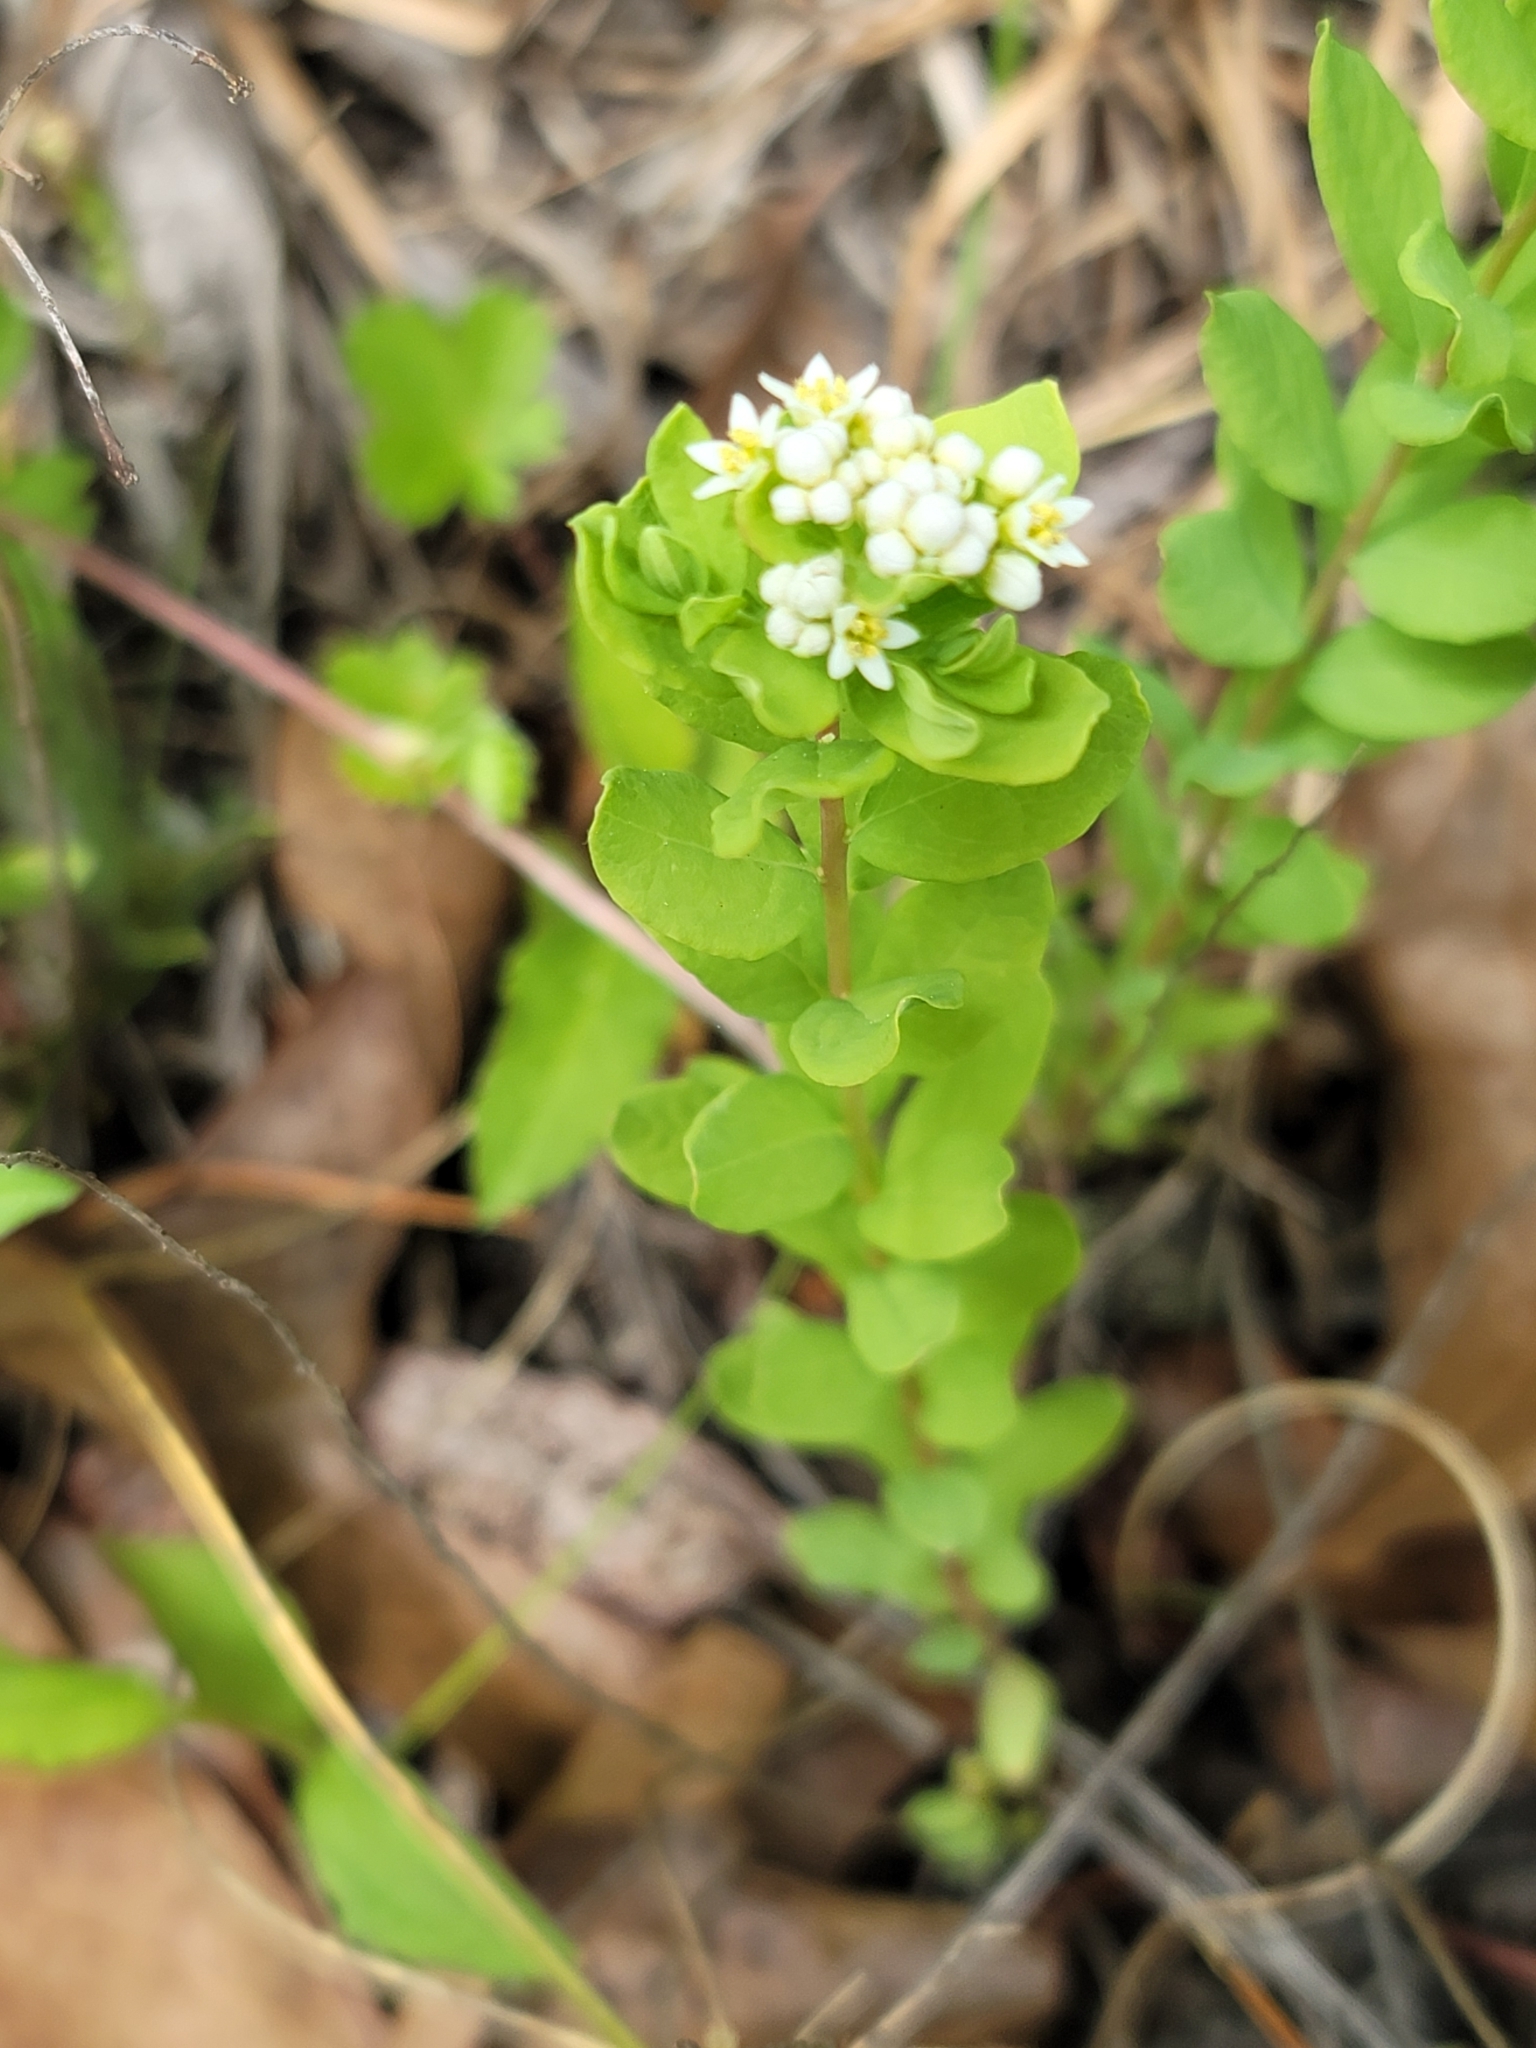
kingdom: Plantae
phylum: Tracheophyta
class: Magnoliopsida
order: Santalales
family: Comandraceae
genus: Comandra
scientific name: Comandra umbellata
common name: Bastard toadflax
